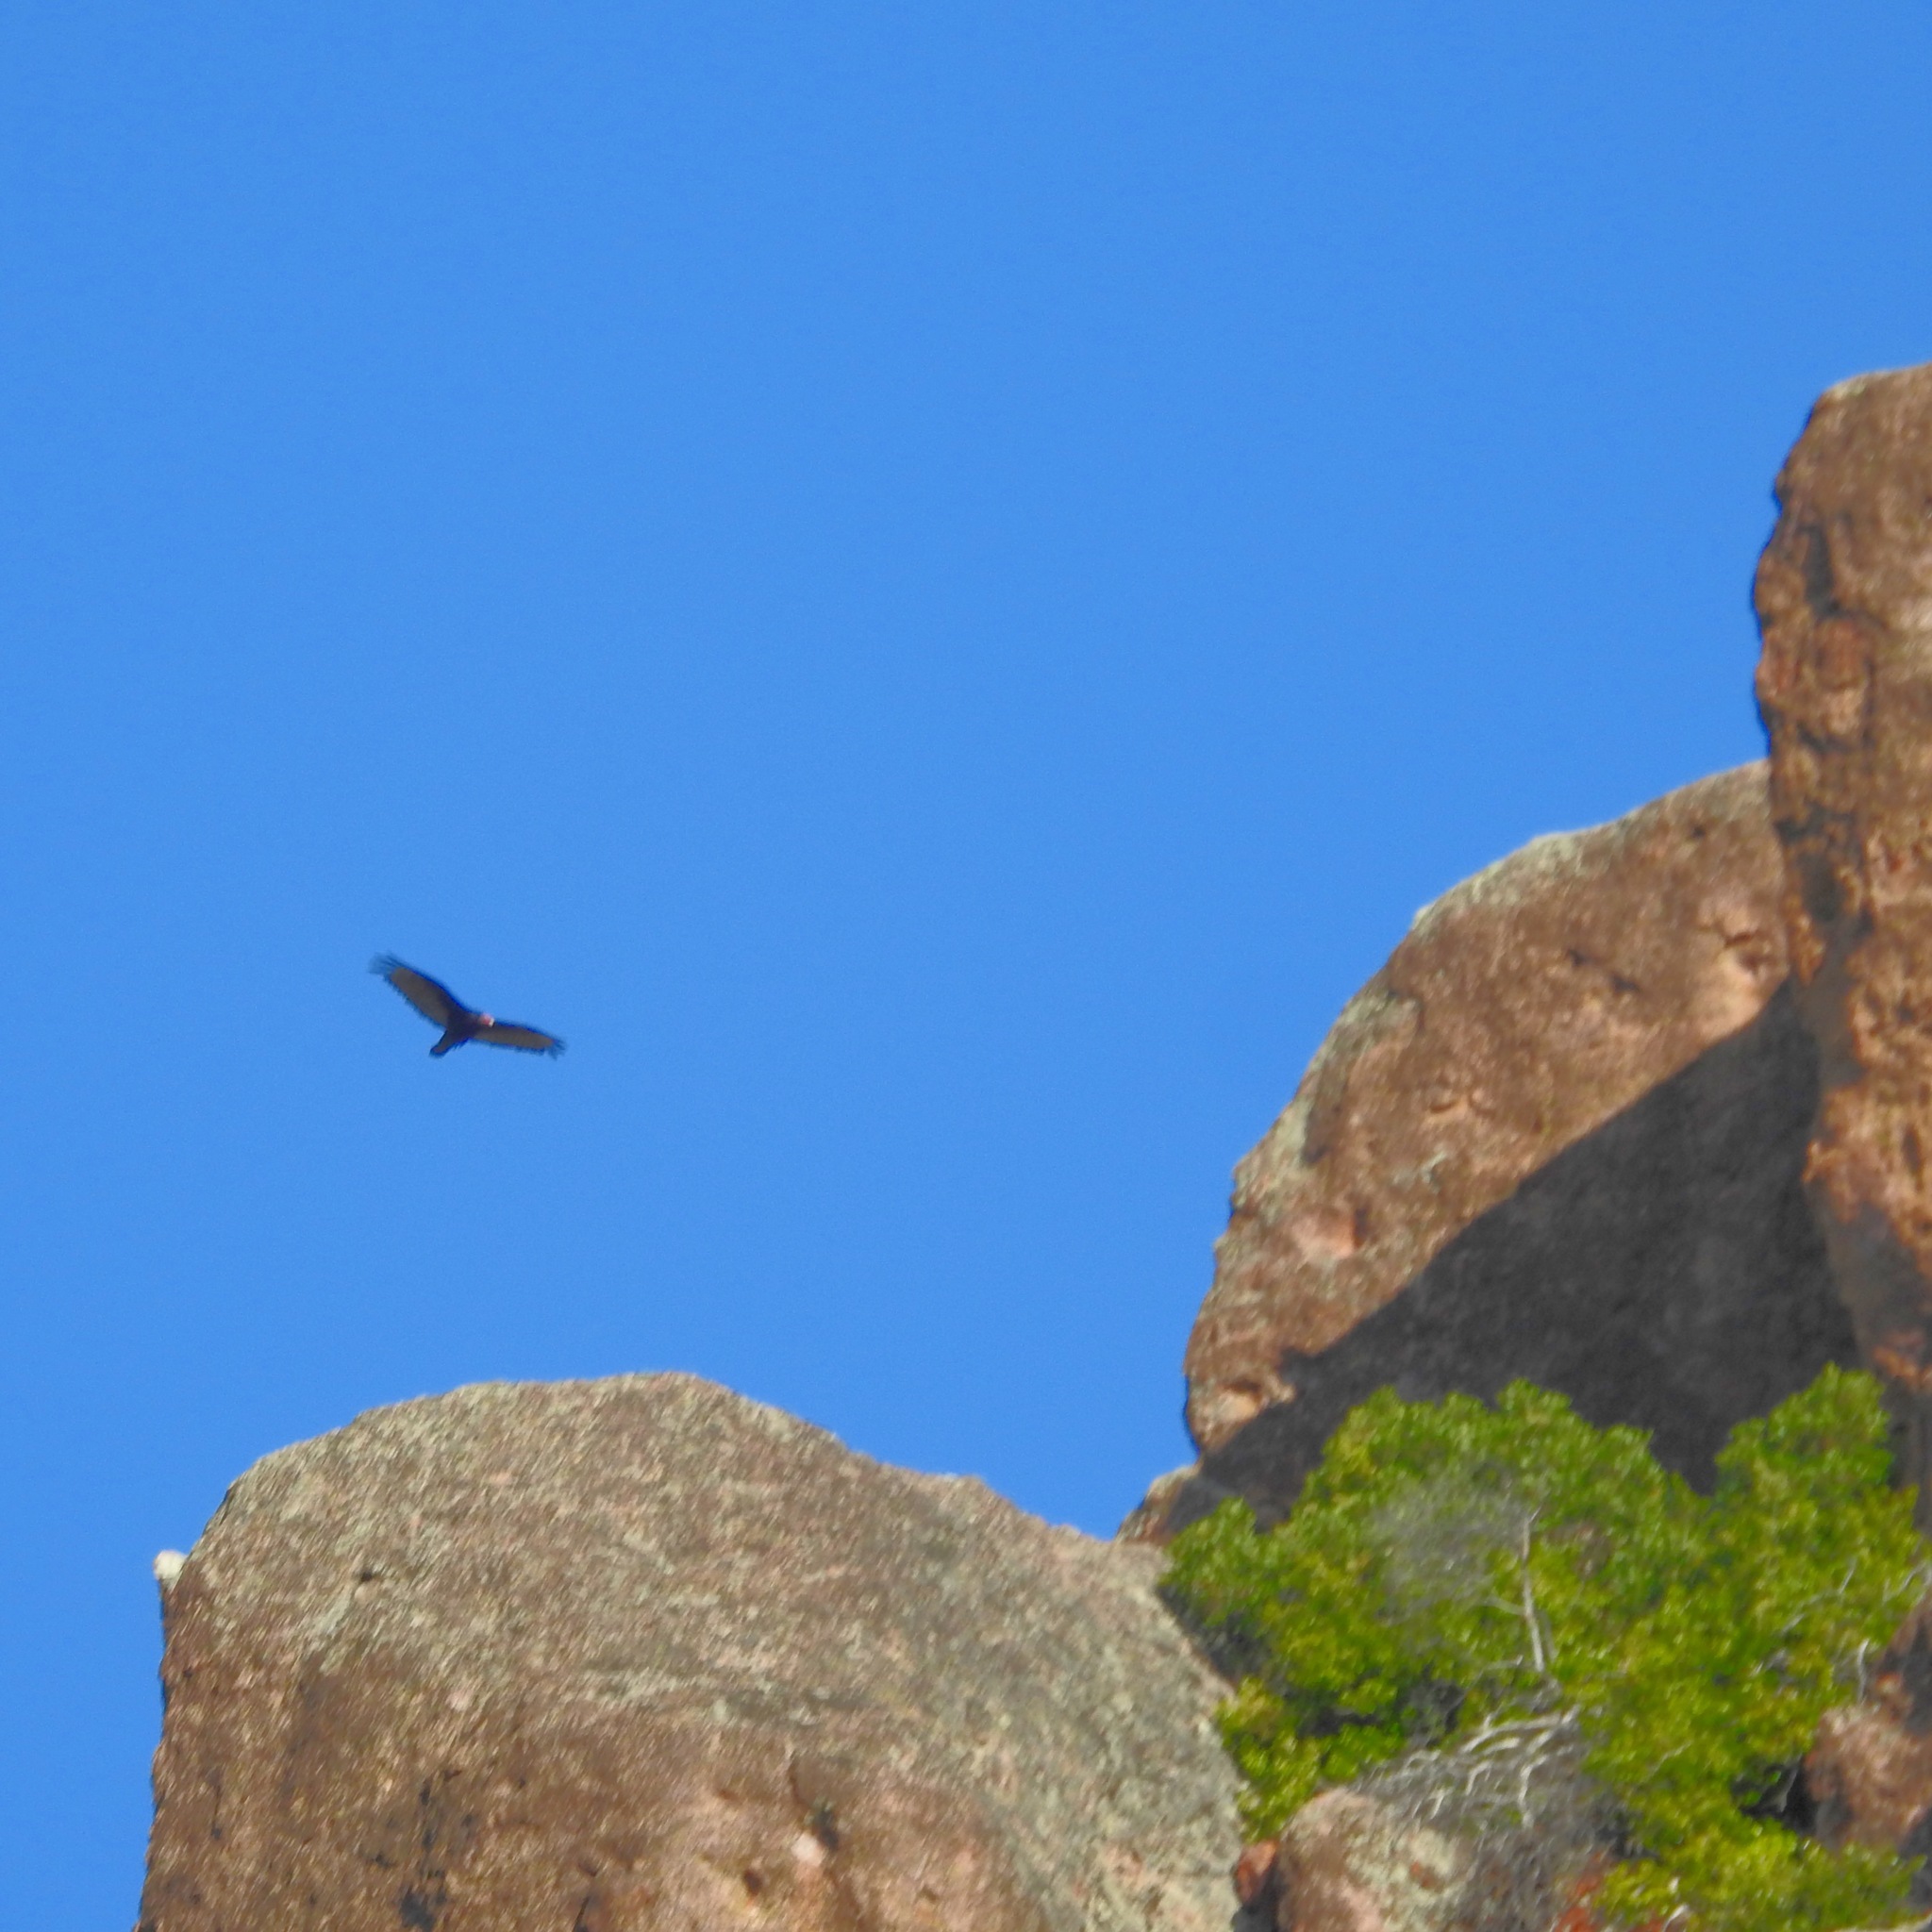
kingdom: Animalia
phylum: Chordata
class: Aves
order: Accipitriformes
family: Cathartidae
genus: Cathartes
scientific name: Cathartes aura
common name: Turkey vulture
